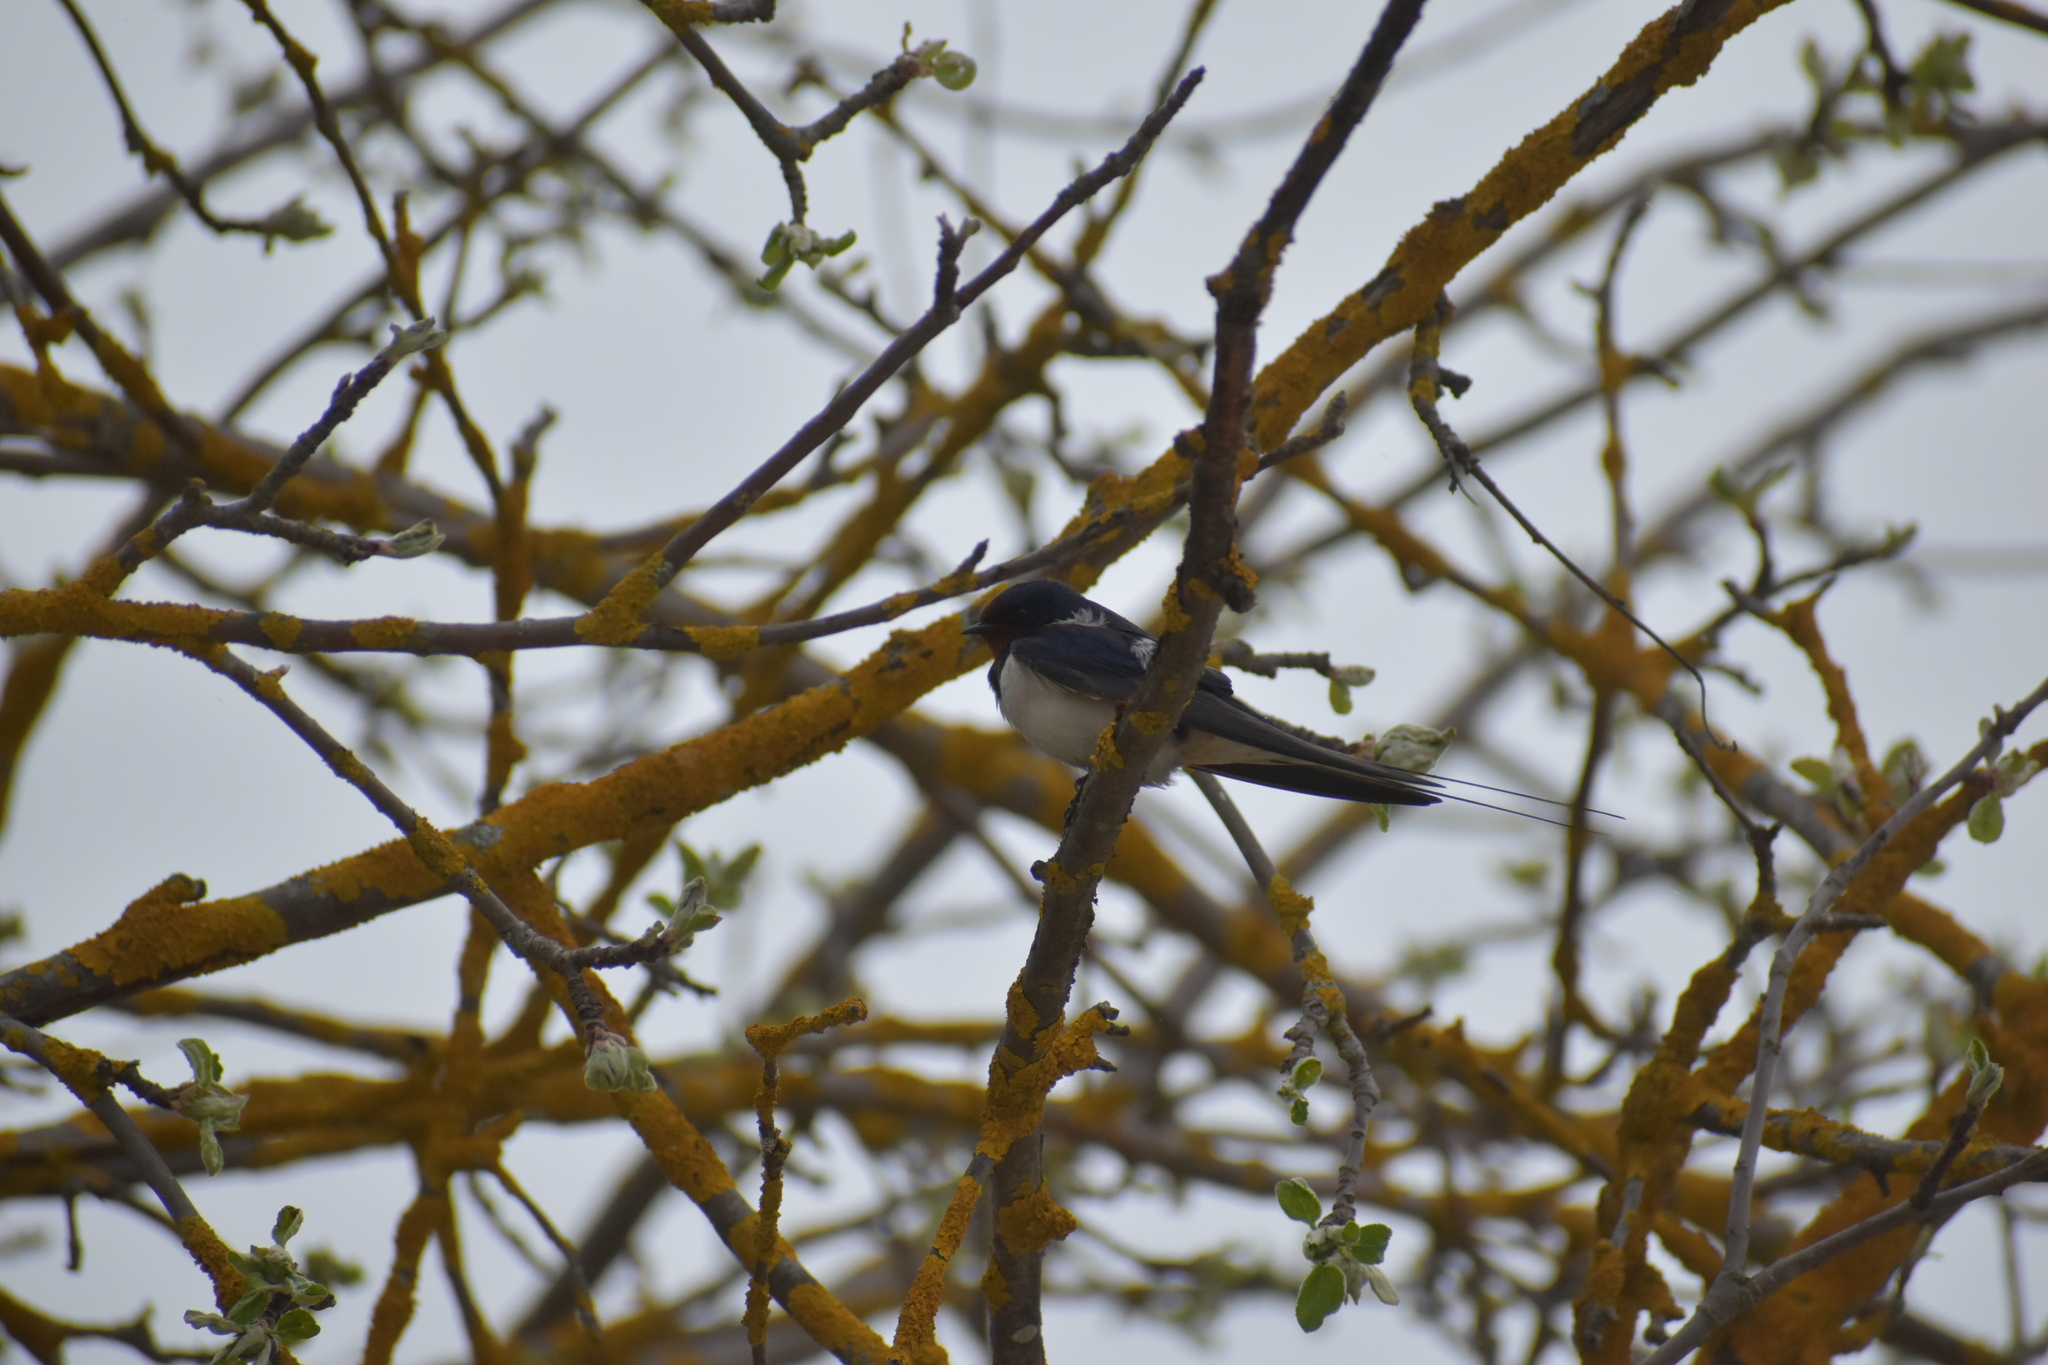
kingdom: Animalia
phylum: Chordata
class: Aves
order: Passeriformes
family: Hirundinidae
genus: Hirundo
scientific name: Hirundo rustica
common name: Barn swallow
